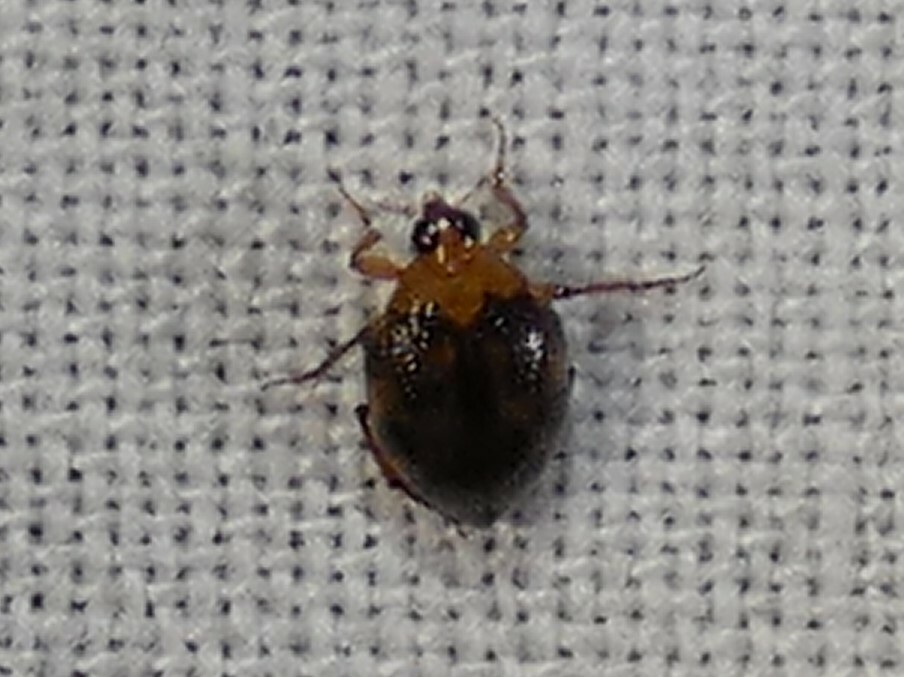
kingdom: Animalia
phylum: Arthropoda
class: Insecta
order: Coleoptera
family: Haliplidae
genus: Peltodytes
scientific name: Peltodytes
